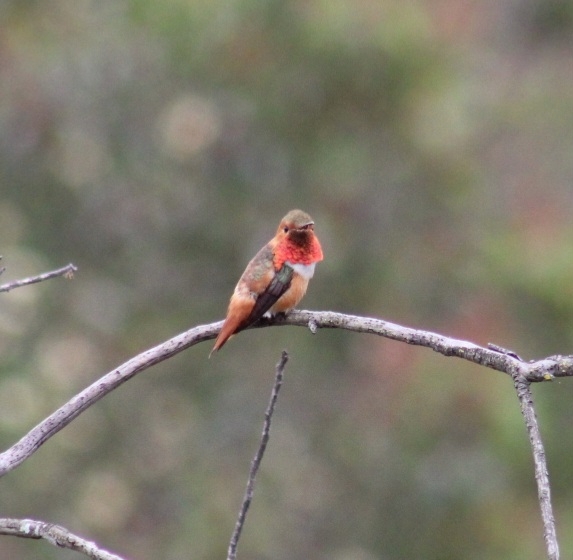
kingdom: Animalia
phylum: Chordata
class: Aves
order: Apodiformes
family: Trochilidae
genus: Selasphorus
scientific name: Selasphorus sasin
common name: Allen's hummingbird
